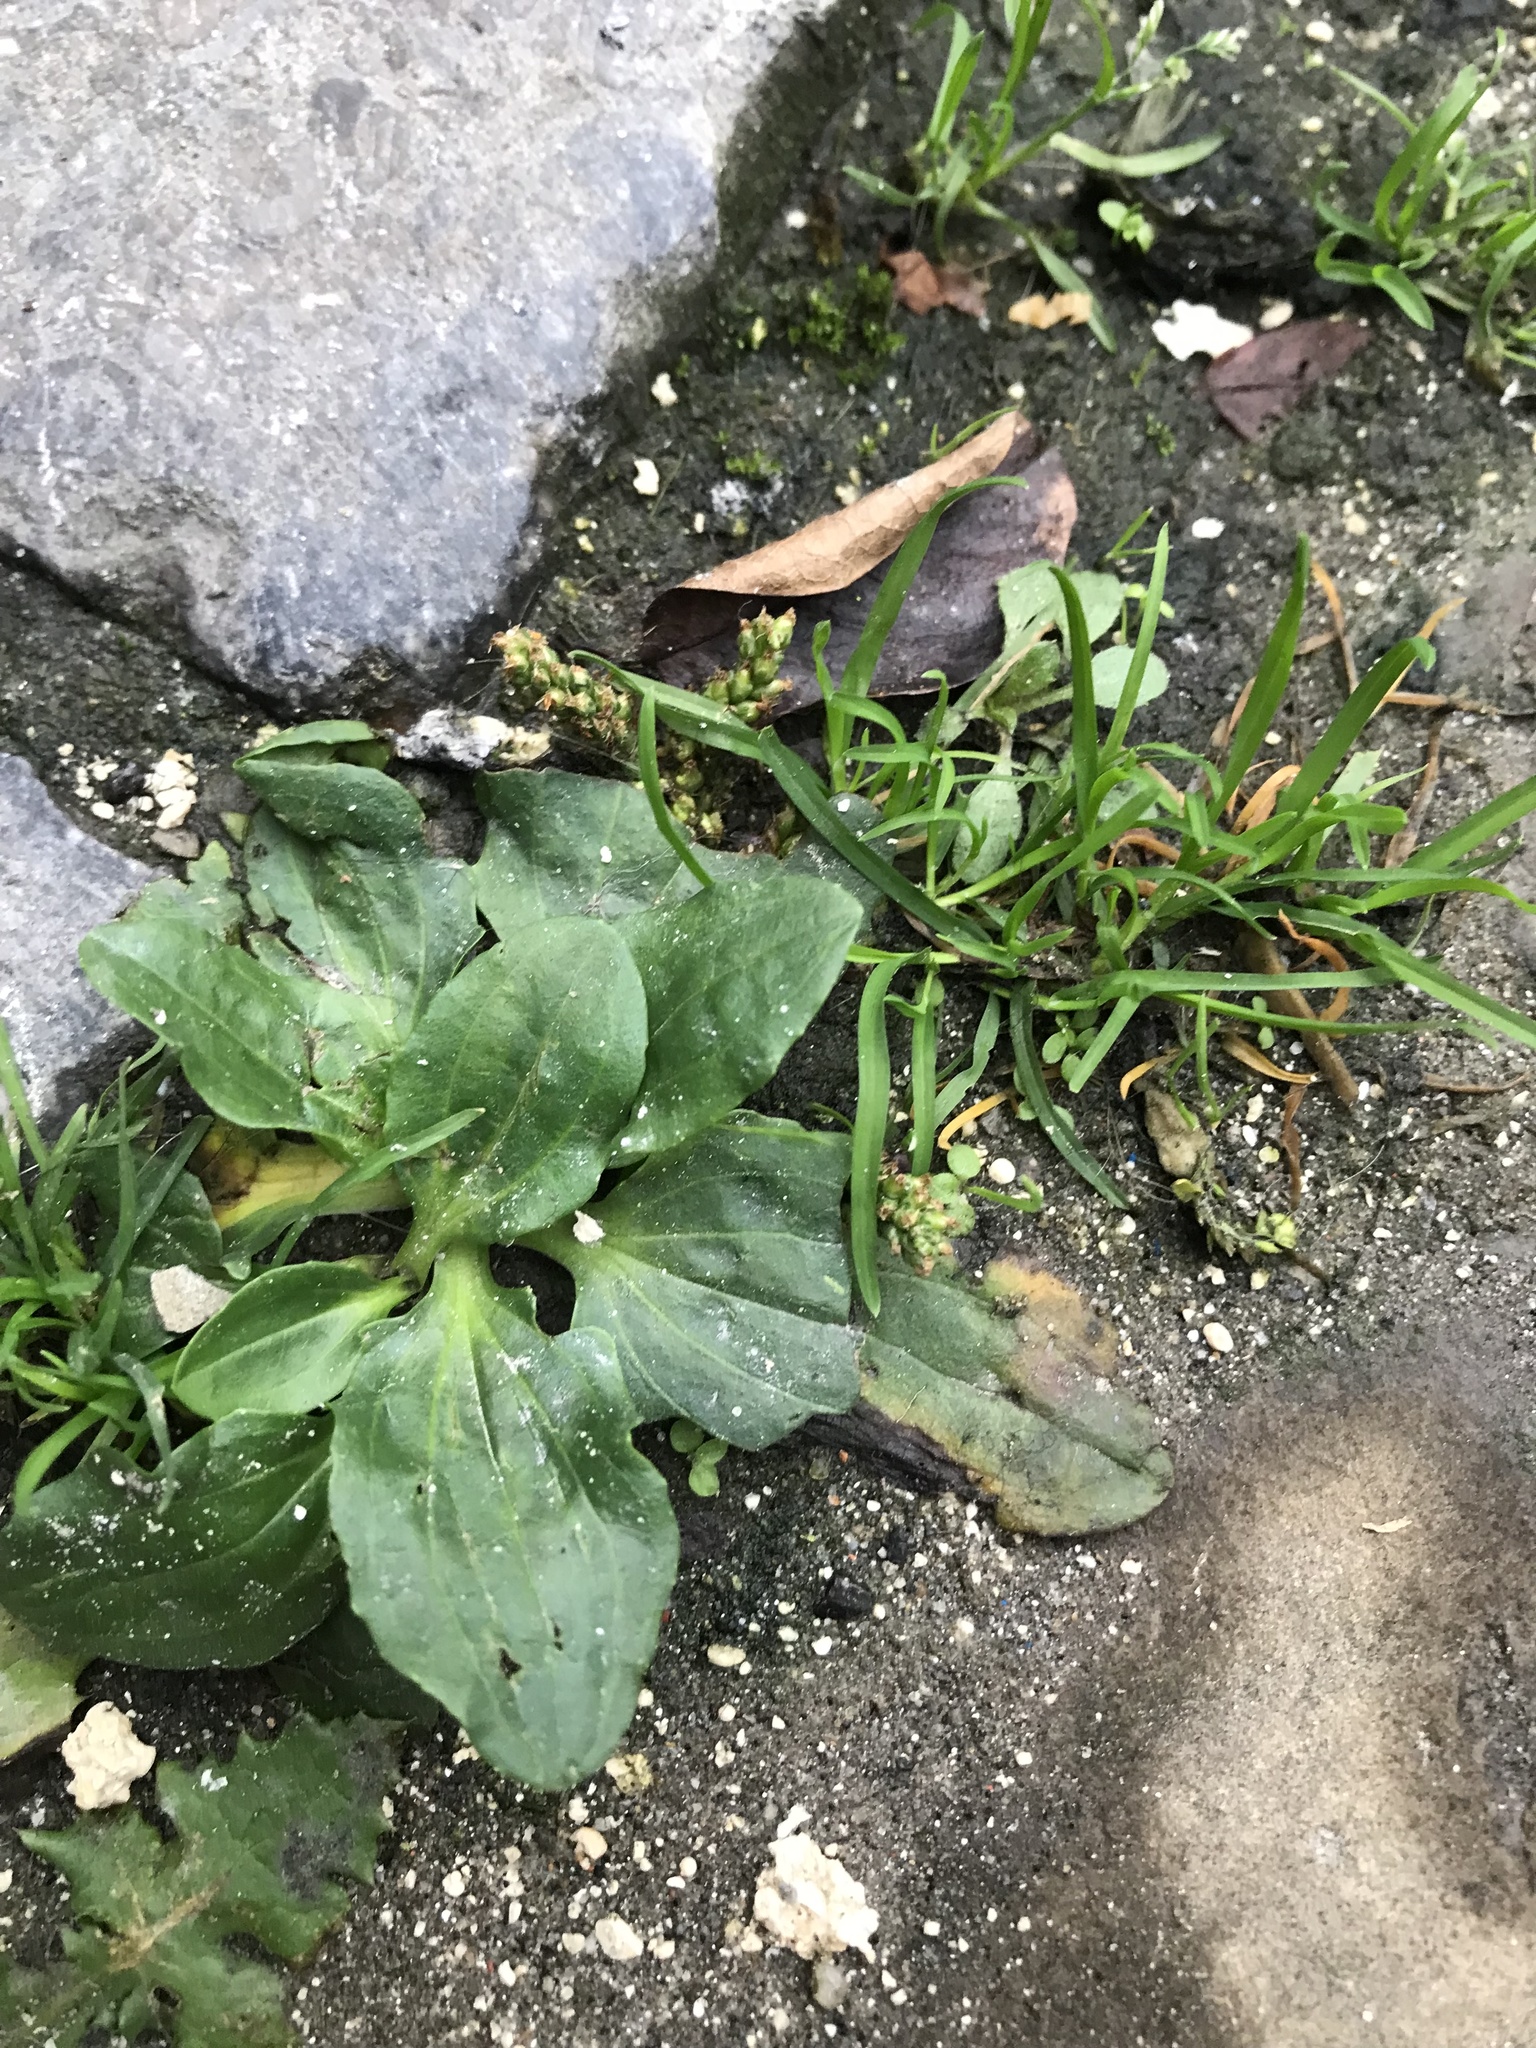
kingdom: Plantae
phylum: Tracheophyta
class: Magnoliopsida
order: Lamiales
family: Plantaginaceae
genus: Plantago
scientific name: Plantago major
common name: Common plantain
